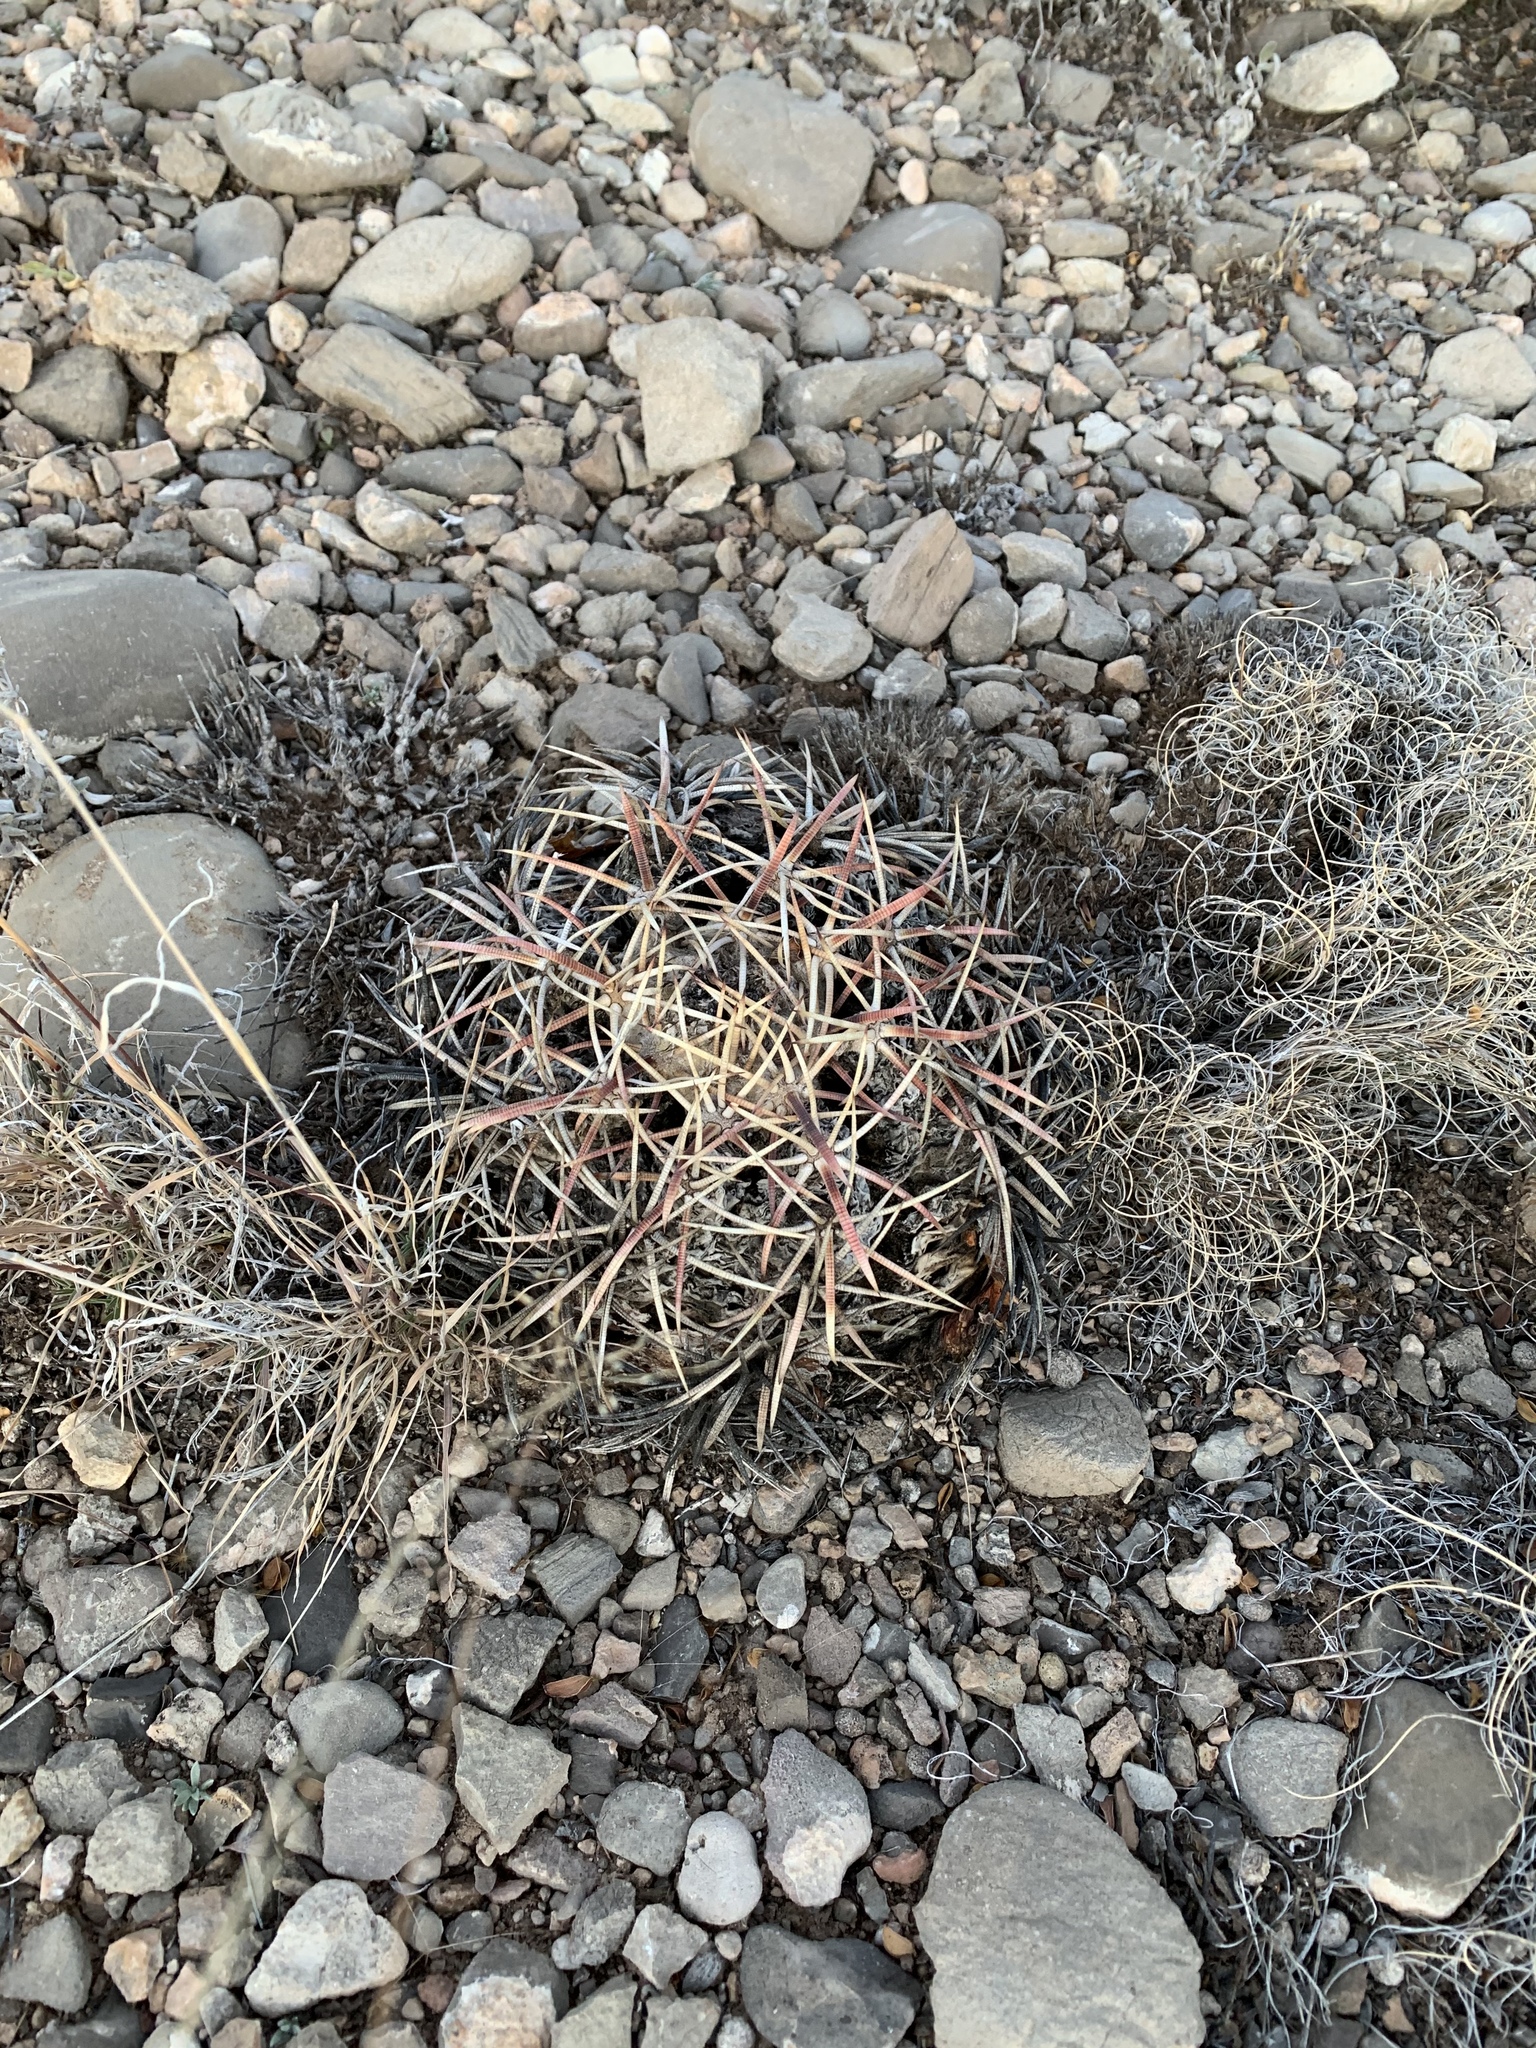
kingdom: Plantae
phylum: Tracheophyta
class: Magnoliopsida
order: Caryophyllales
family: Cactaceae
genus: Echinocactus
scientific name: Echinocactus horizonthalonius
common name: Devilshead
